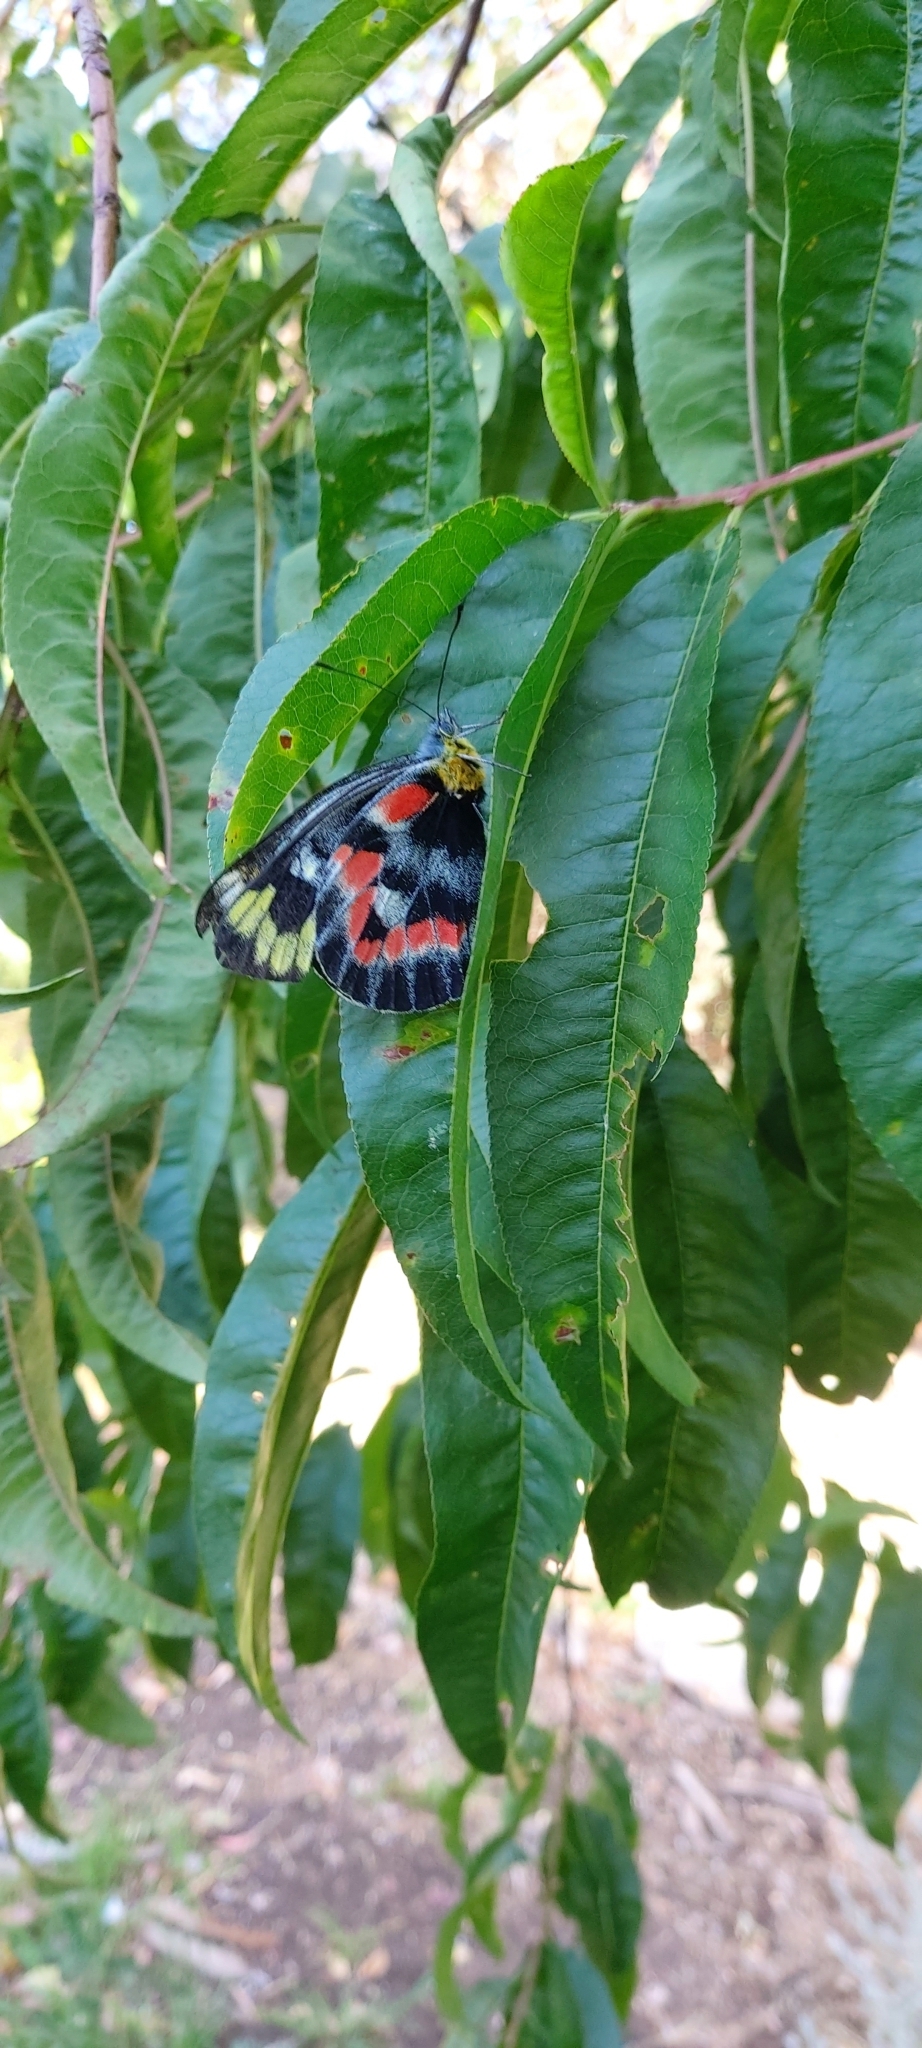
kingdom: Animalia
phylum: Arthropoda
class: Insecta
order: Lepidoptera
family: Pieridae
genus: Delias
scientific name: Delias harpalyce
